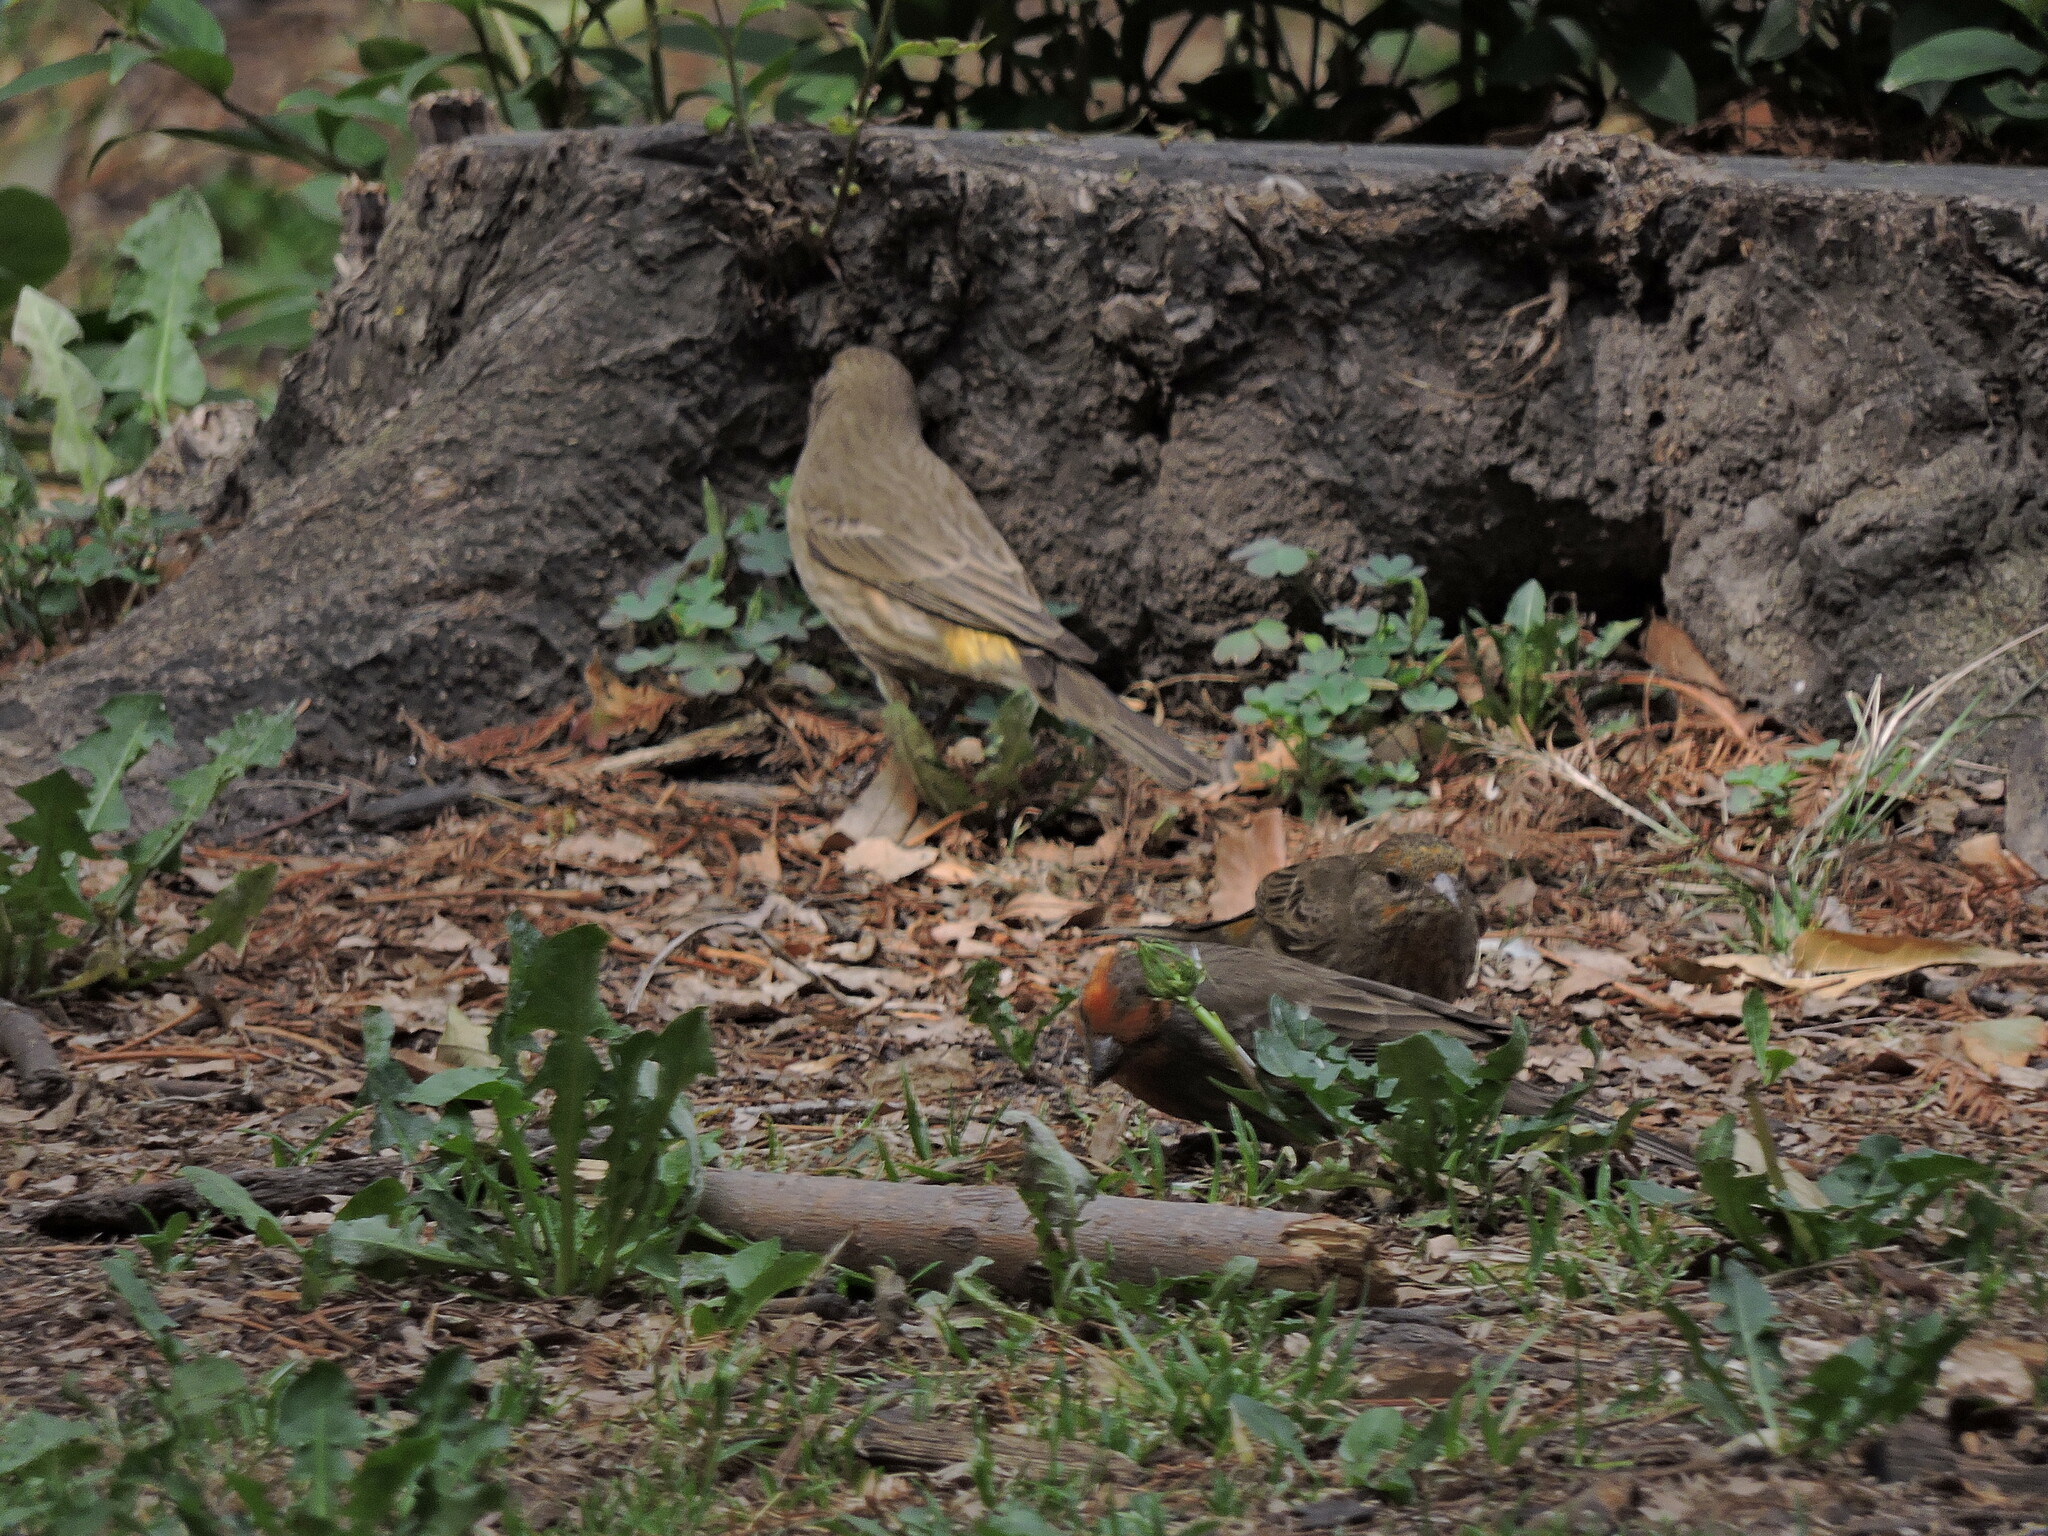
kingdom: Animalia
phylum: Chordata
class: Aves
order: Passeriformes
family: Fringillidae
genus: Haemorhous
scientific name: Haemorhous mexicanus
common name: House finch
